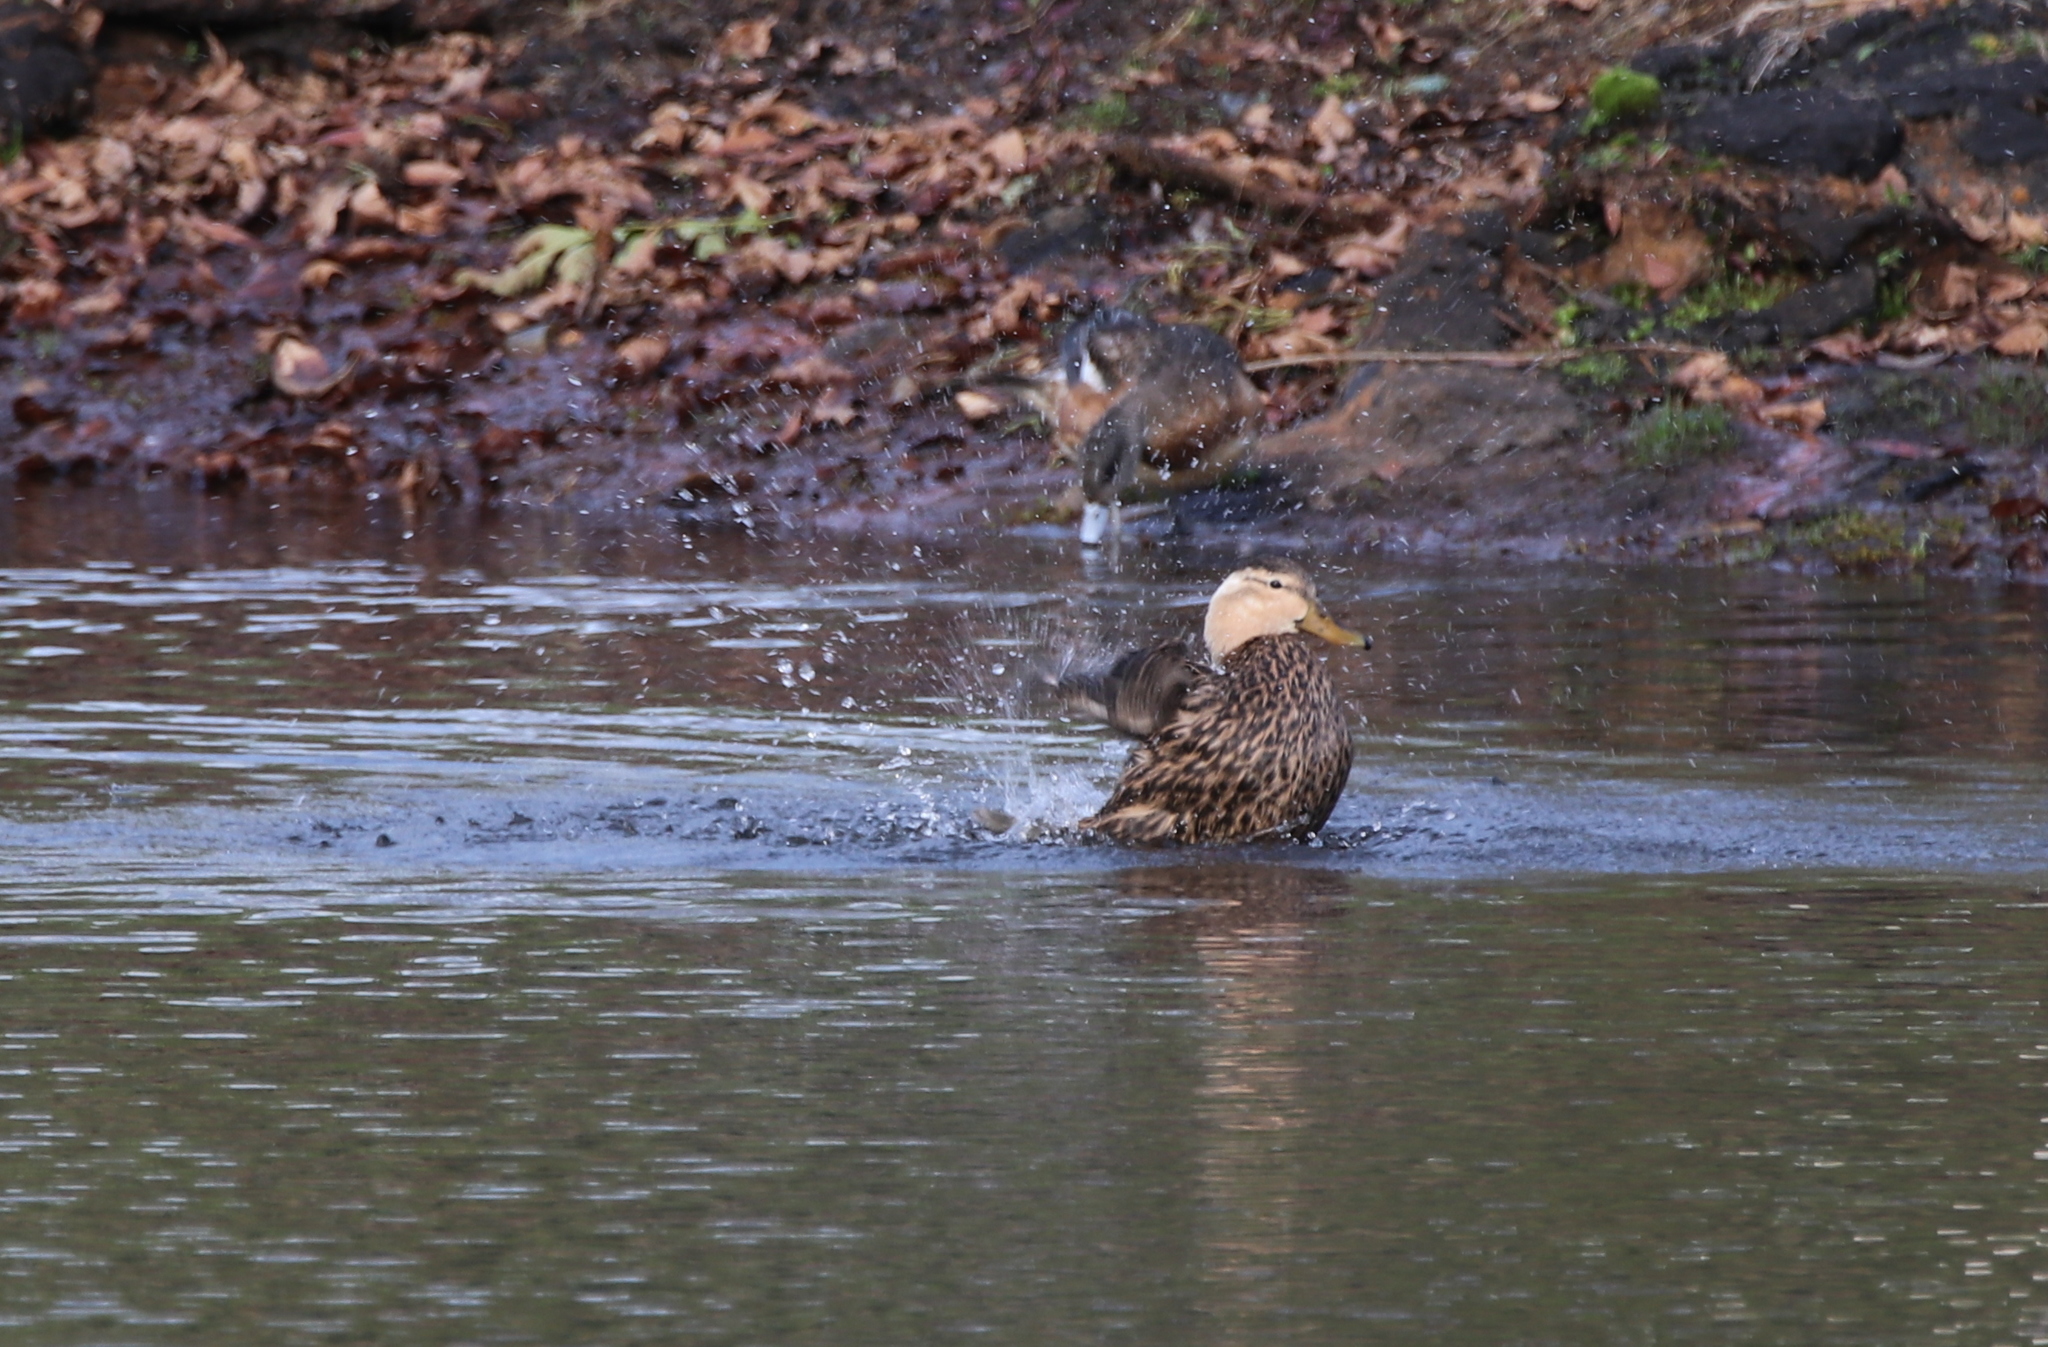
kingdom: Animalia
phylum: Chordata
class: Aves
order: Anseriformes
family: Anatidae
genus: Anas
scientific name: Anas fulvigula
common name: Mottled duck
